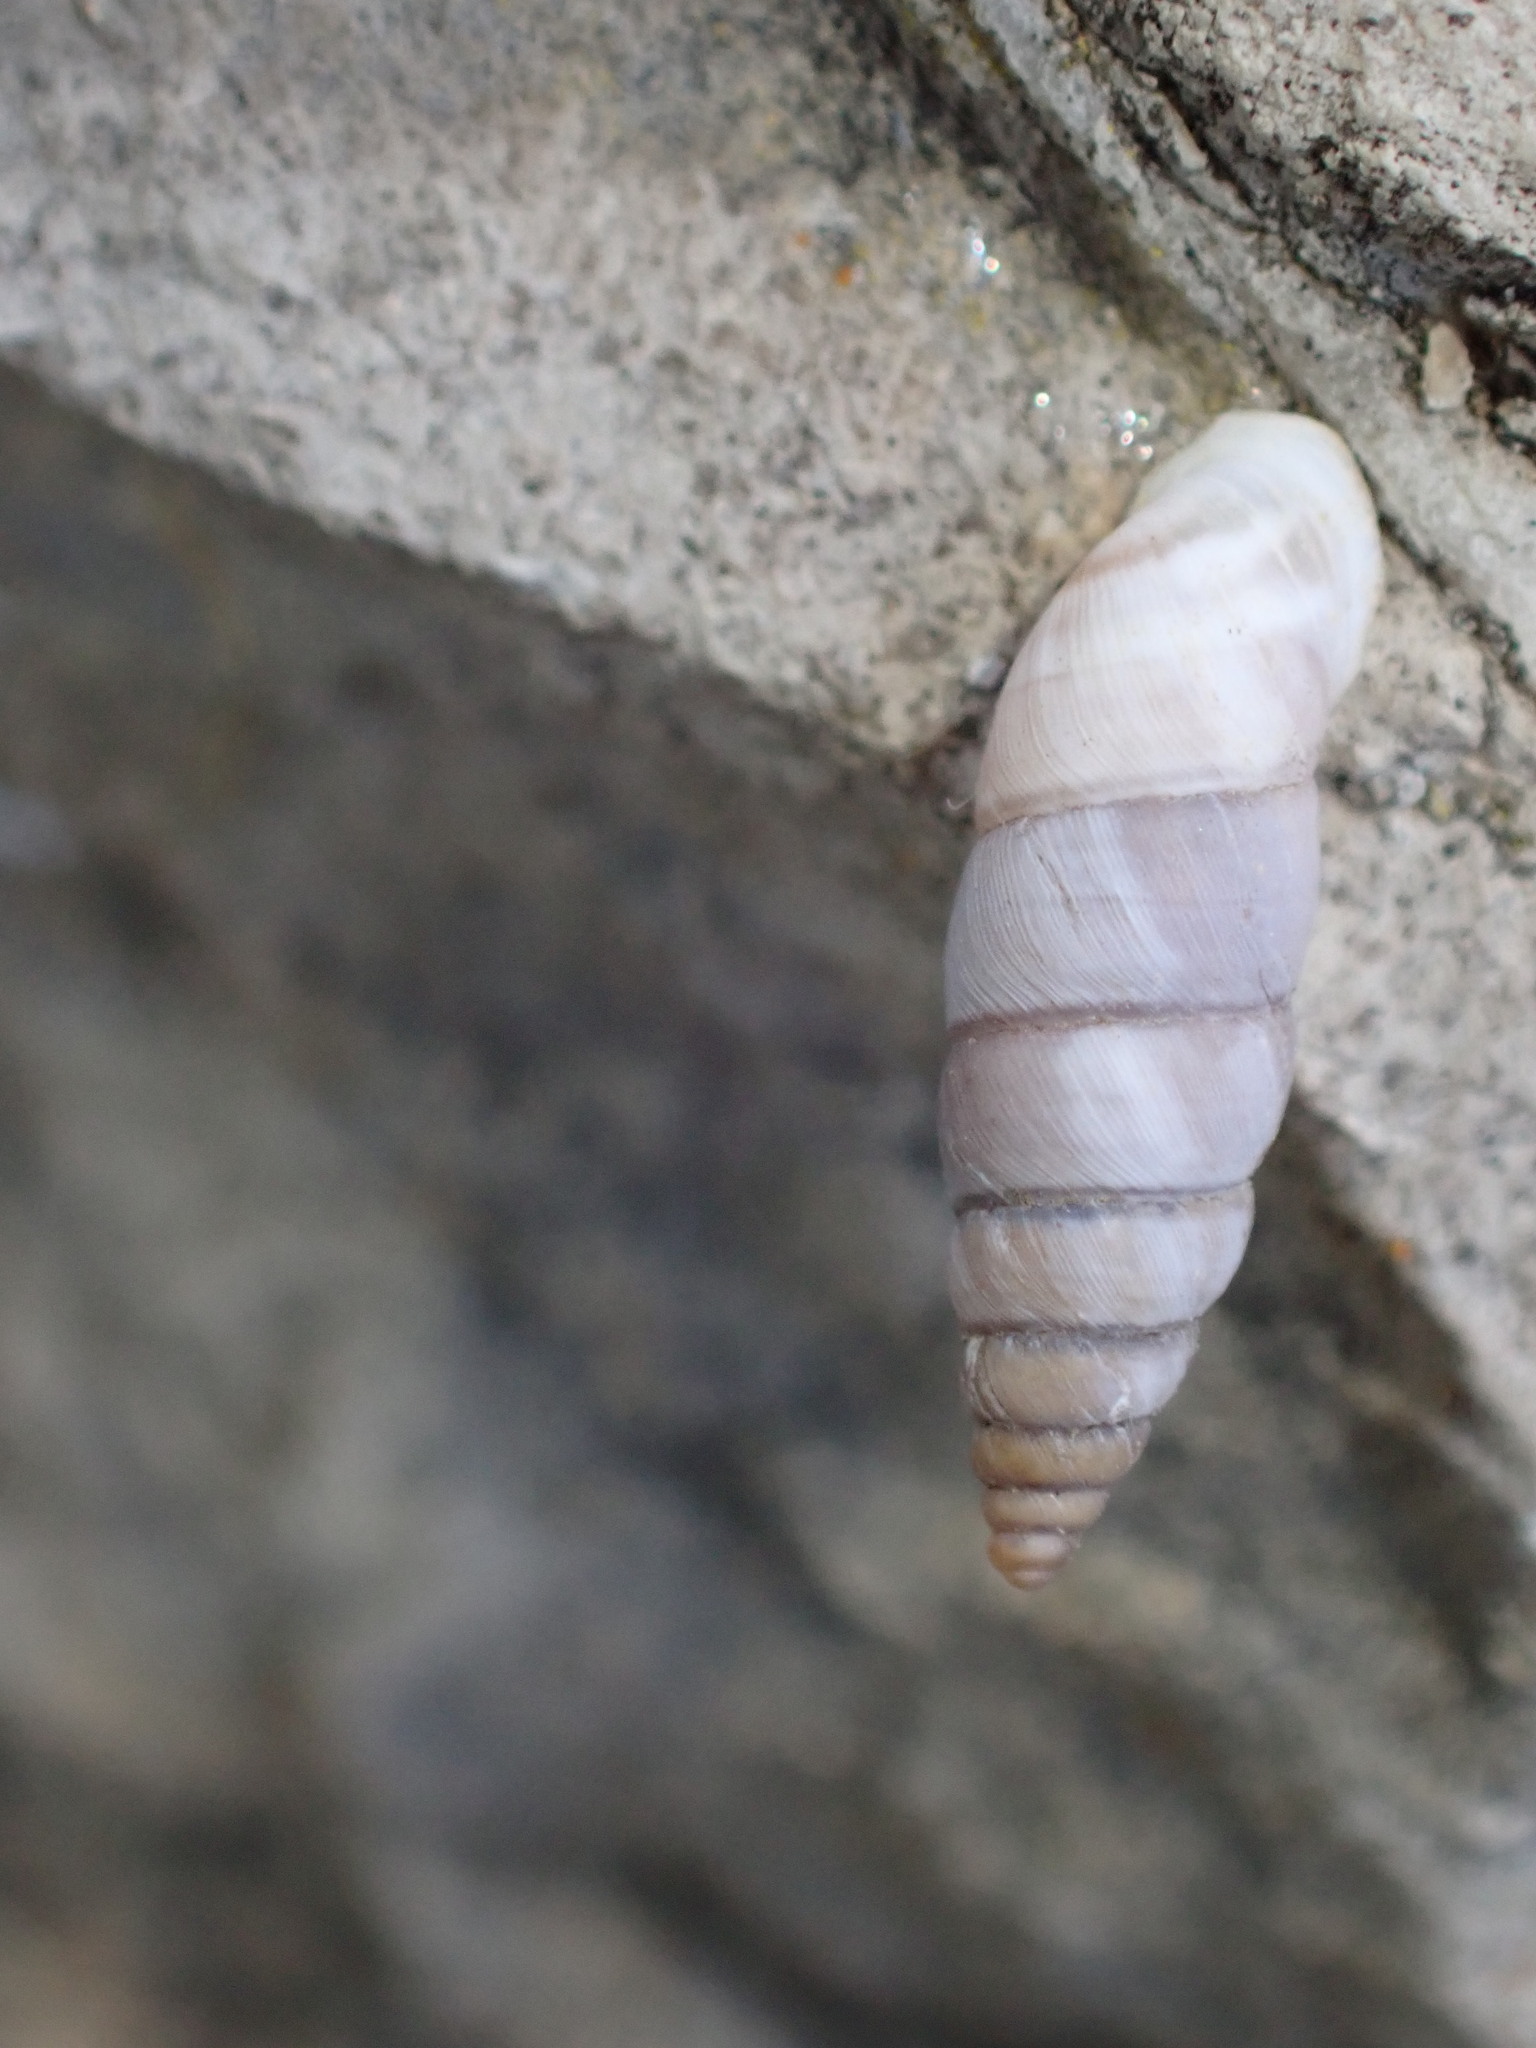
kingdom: Animalia
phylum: Mollusca
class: Gastropoda
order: Stylommatophora
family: Chondrinidae
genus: Solatopupa
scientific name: Solatopupa similis
